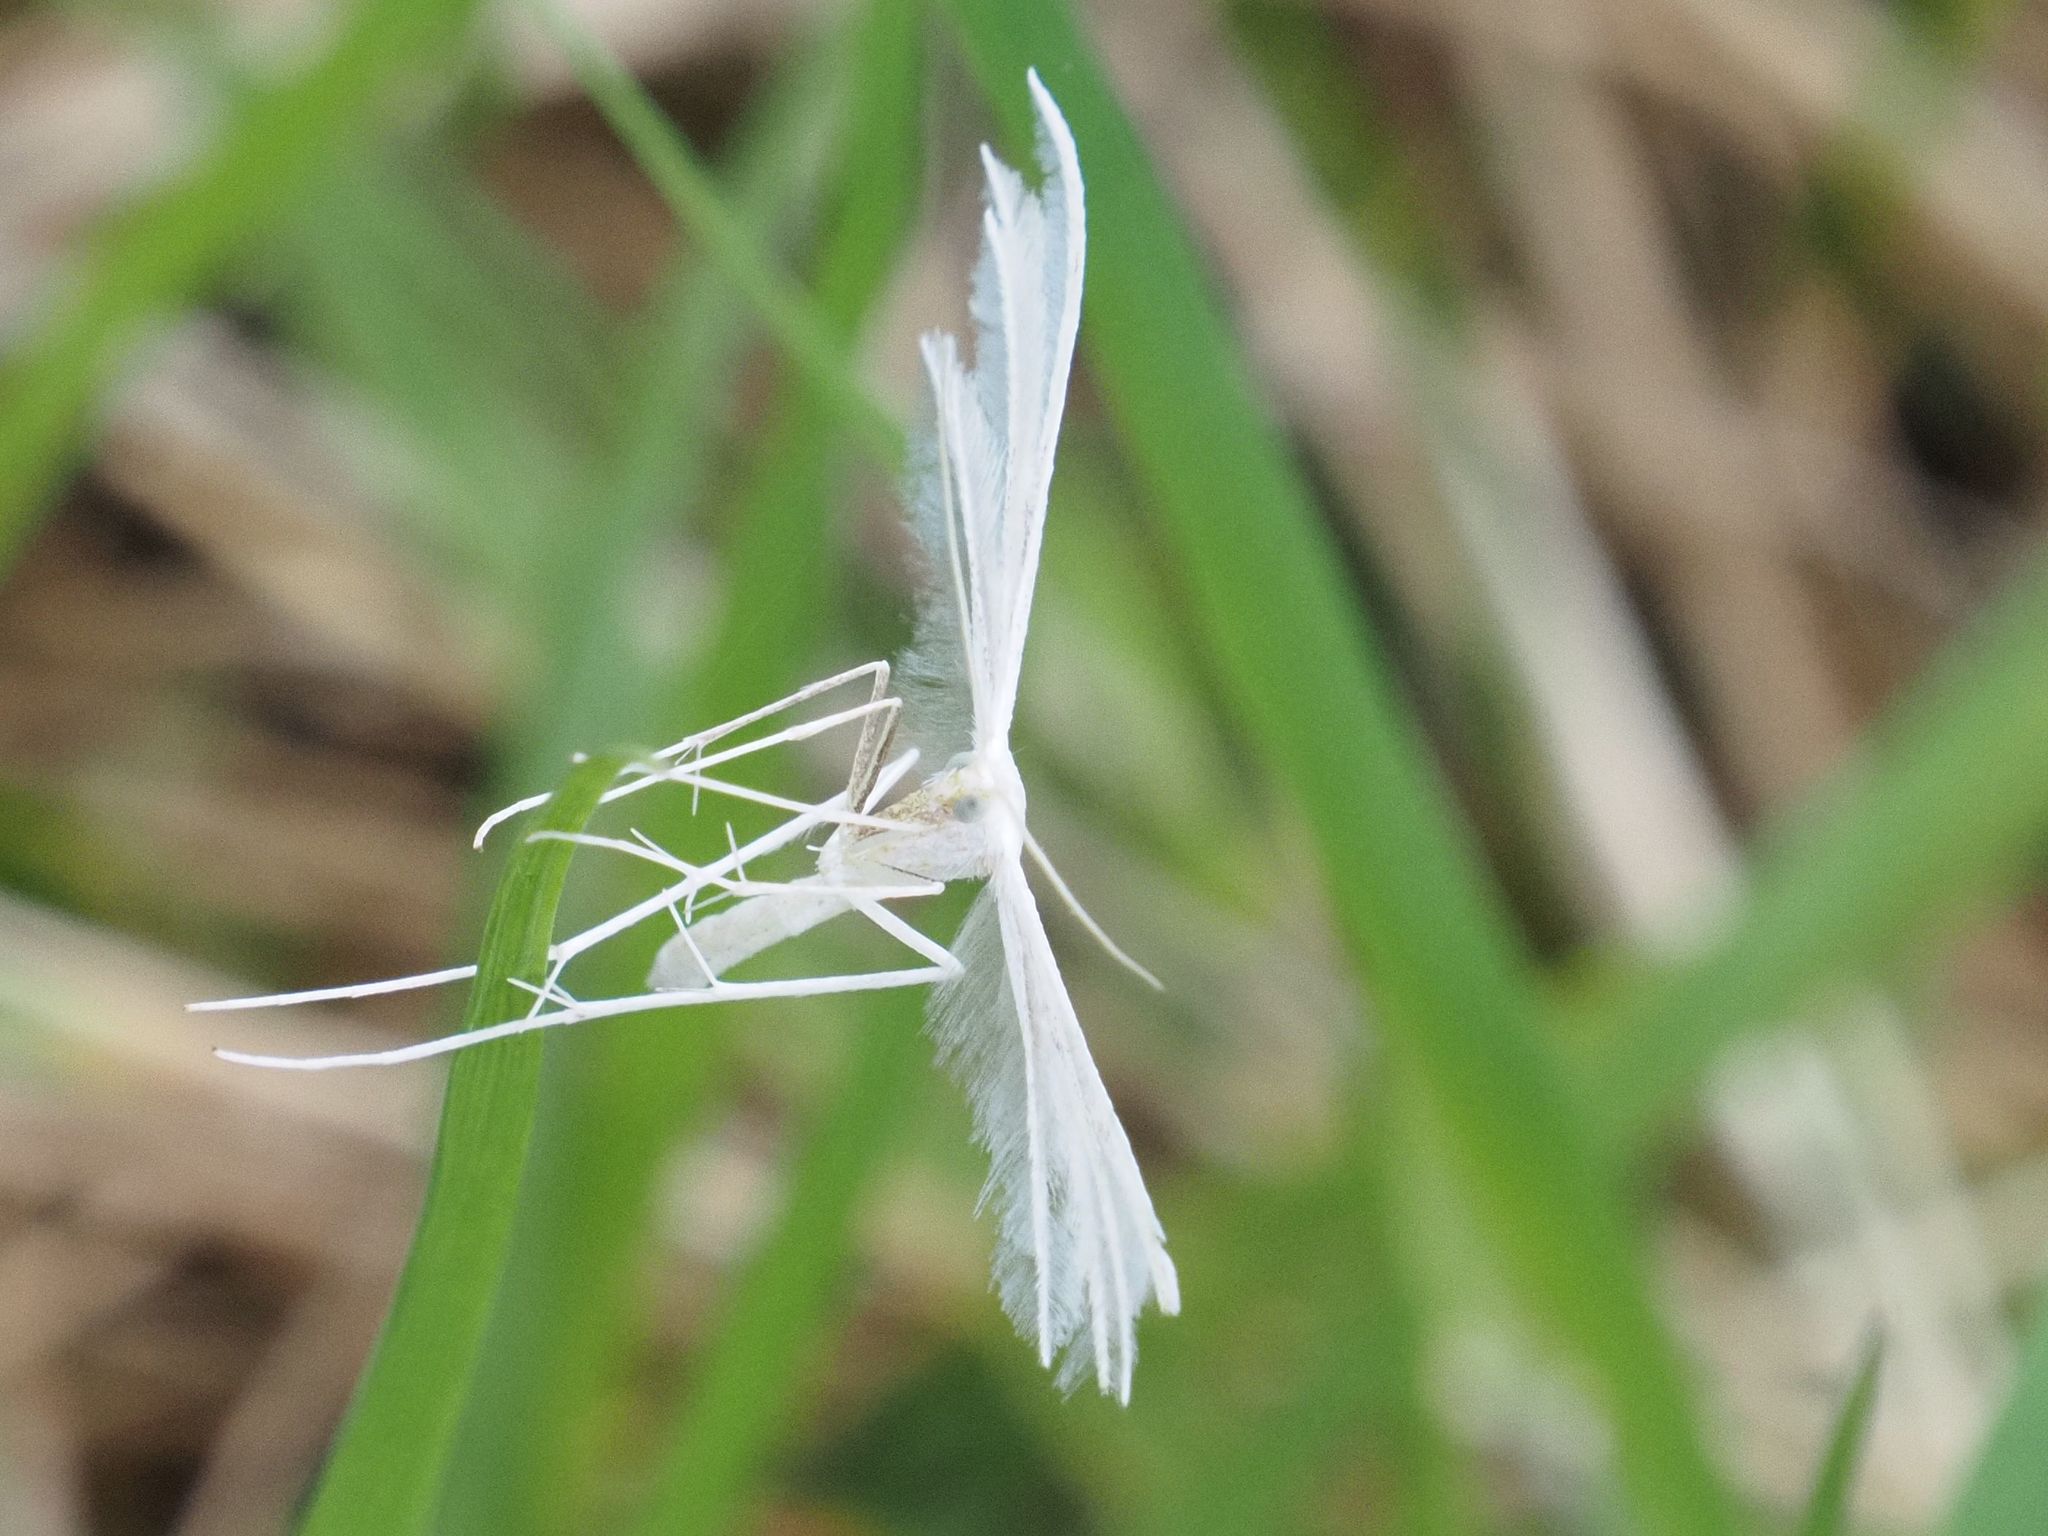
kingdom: Animalia
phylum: Arthropoda
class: Insecta
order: Lepidoptera
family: Pterophoridae
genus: Pterophorus
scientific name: Pterophorus pentadactyla
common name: White plume moth
